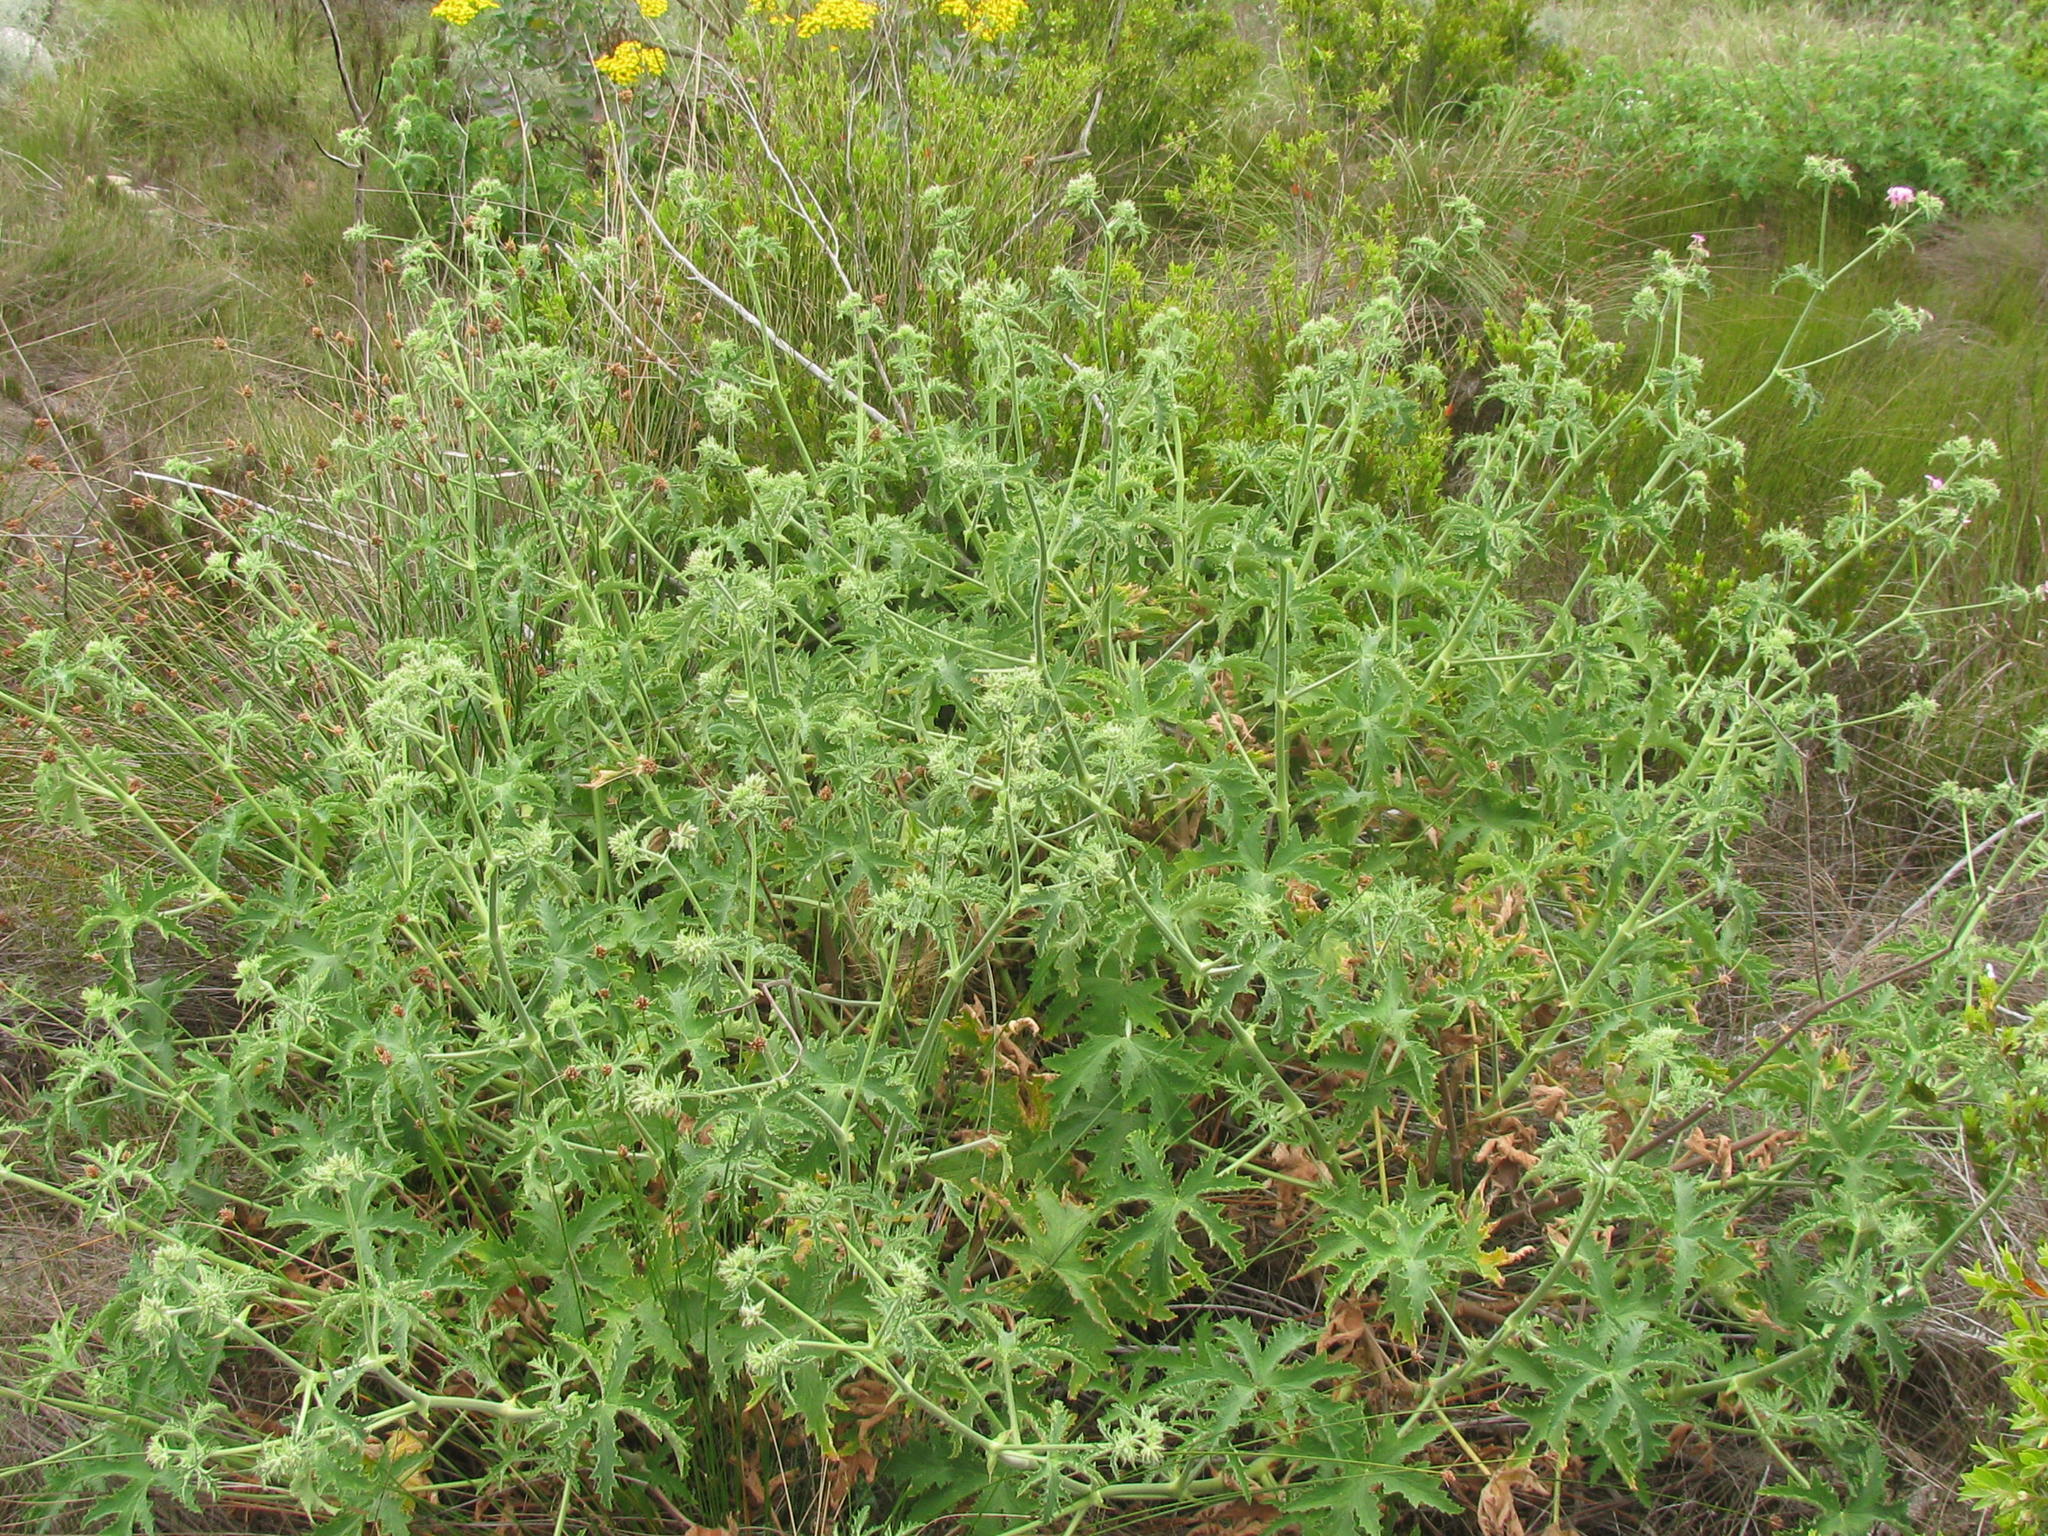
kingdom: Plantae
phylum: Tracheophyta
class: Magnoliopsida
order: Geraniales
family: Geraniaceae
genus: Pelargonium
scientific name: Pelargonium hispidum
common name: Hispid pelargonium
